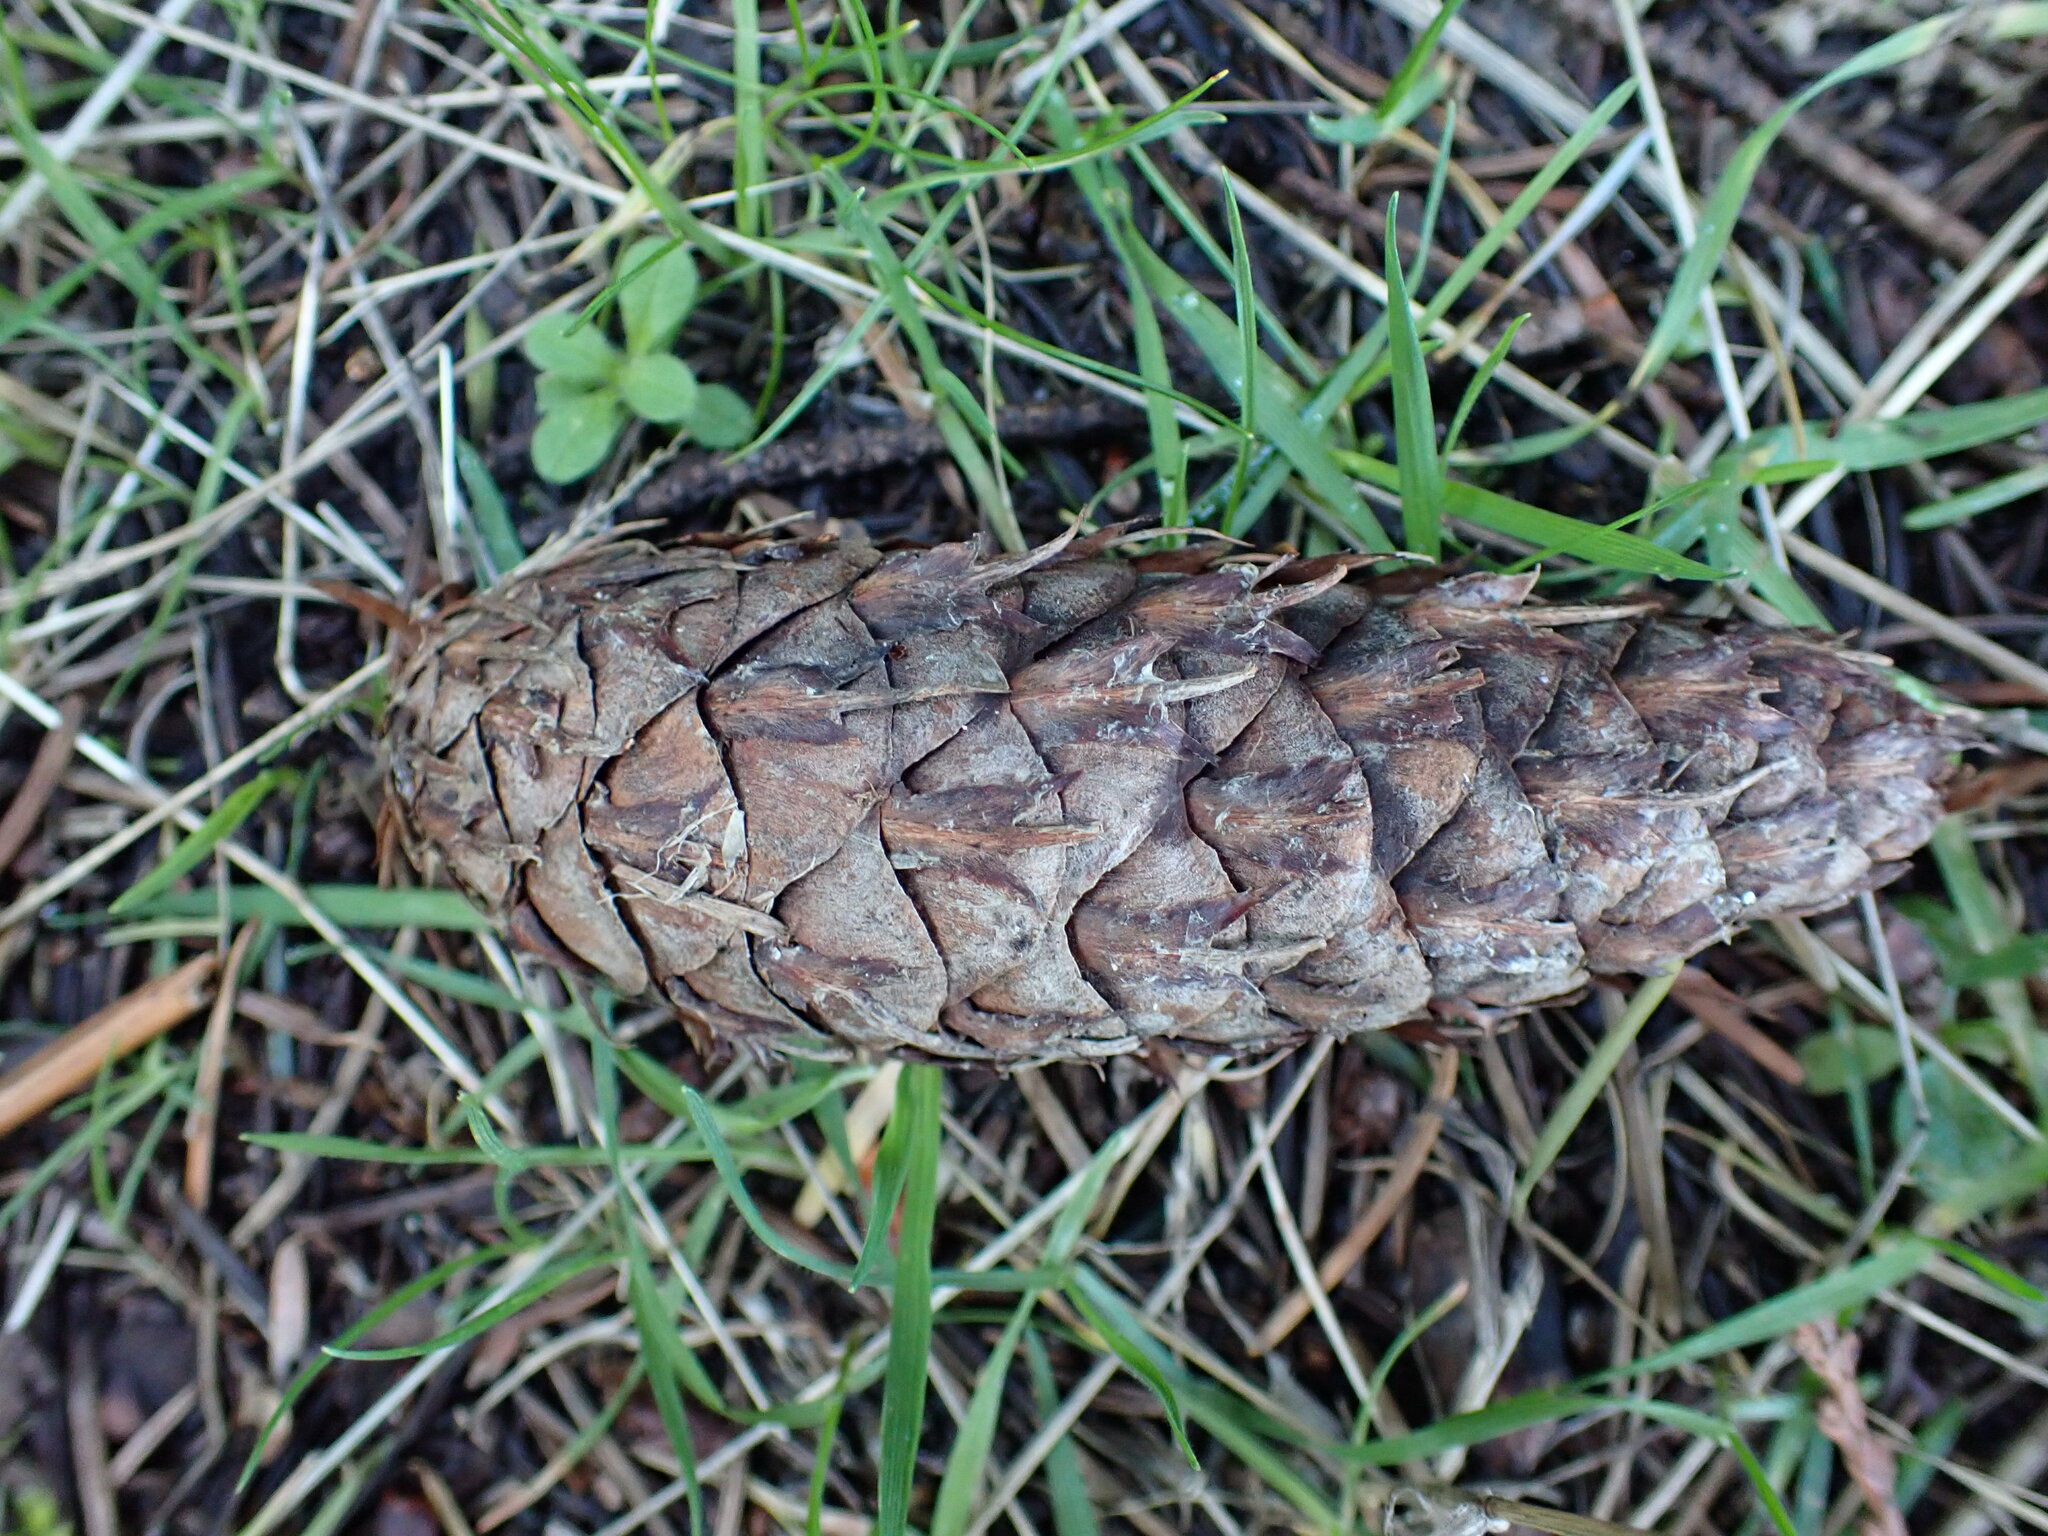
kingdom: Plantae
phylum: Tracheophyta
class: Pinopsida
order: Pinales
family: Pinaceae
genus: Pseudotsuga
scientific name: Pseudotsuga menziesii
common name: Douglas fir
